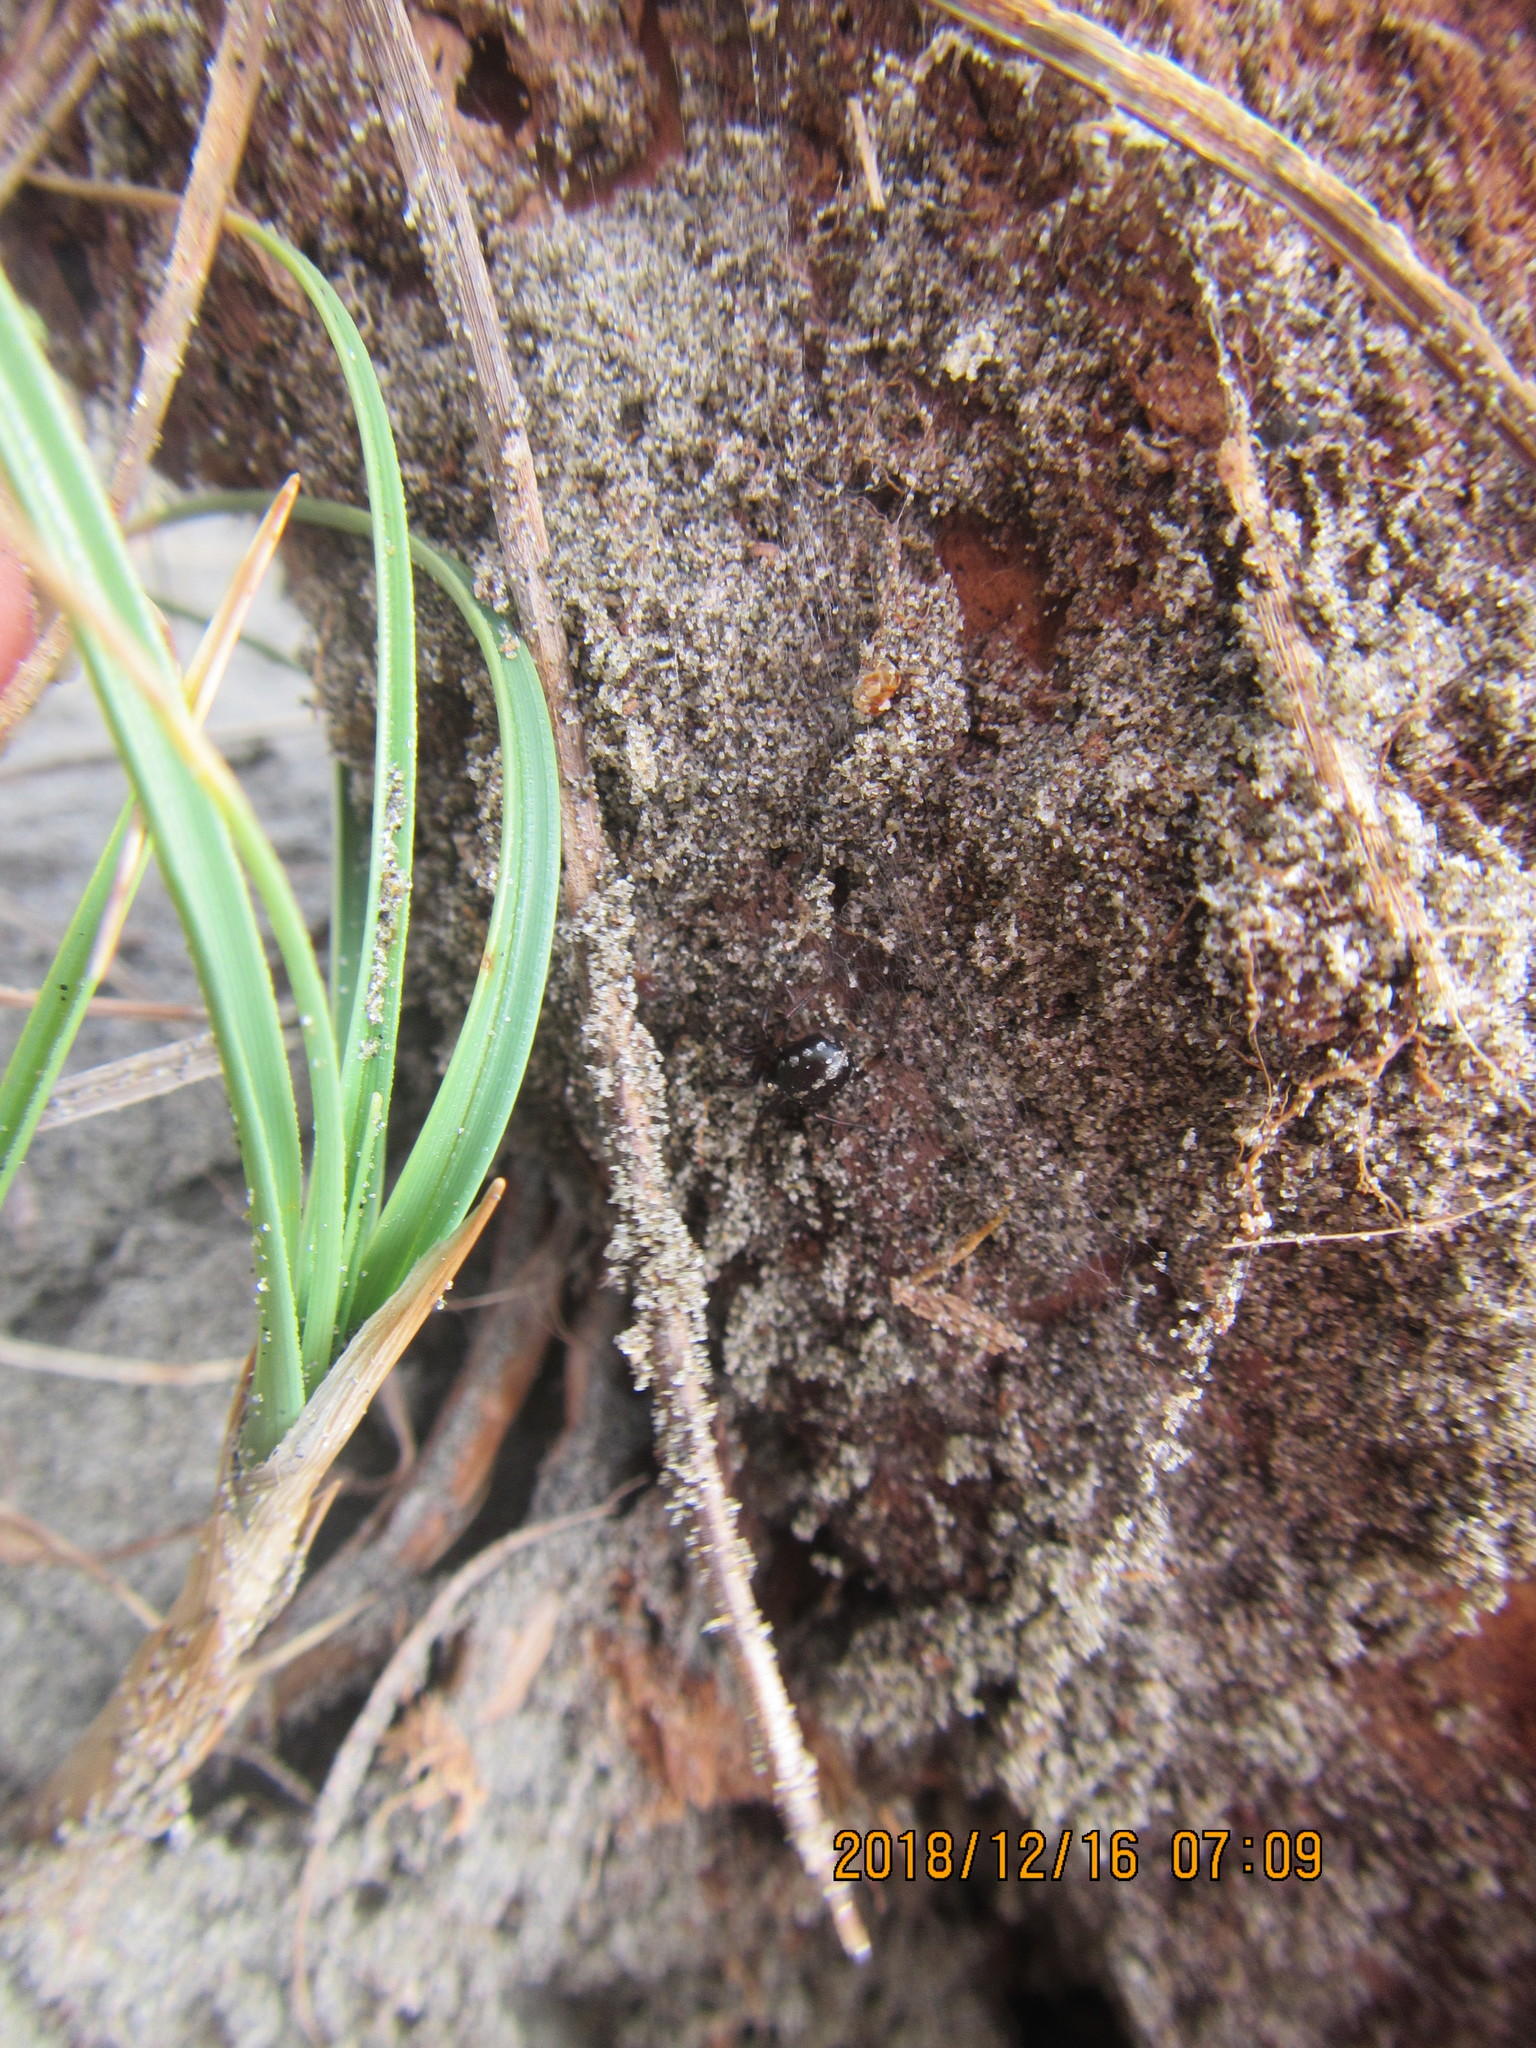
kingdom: Animalia
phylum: Arthropoda
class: Arachnida
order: Araneae
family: Theridiidae
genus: Steatoda
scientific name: Steatoda lepida
